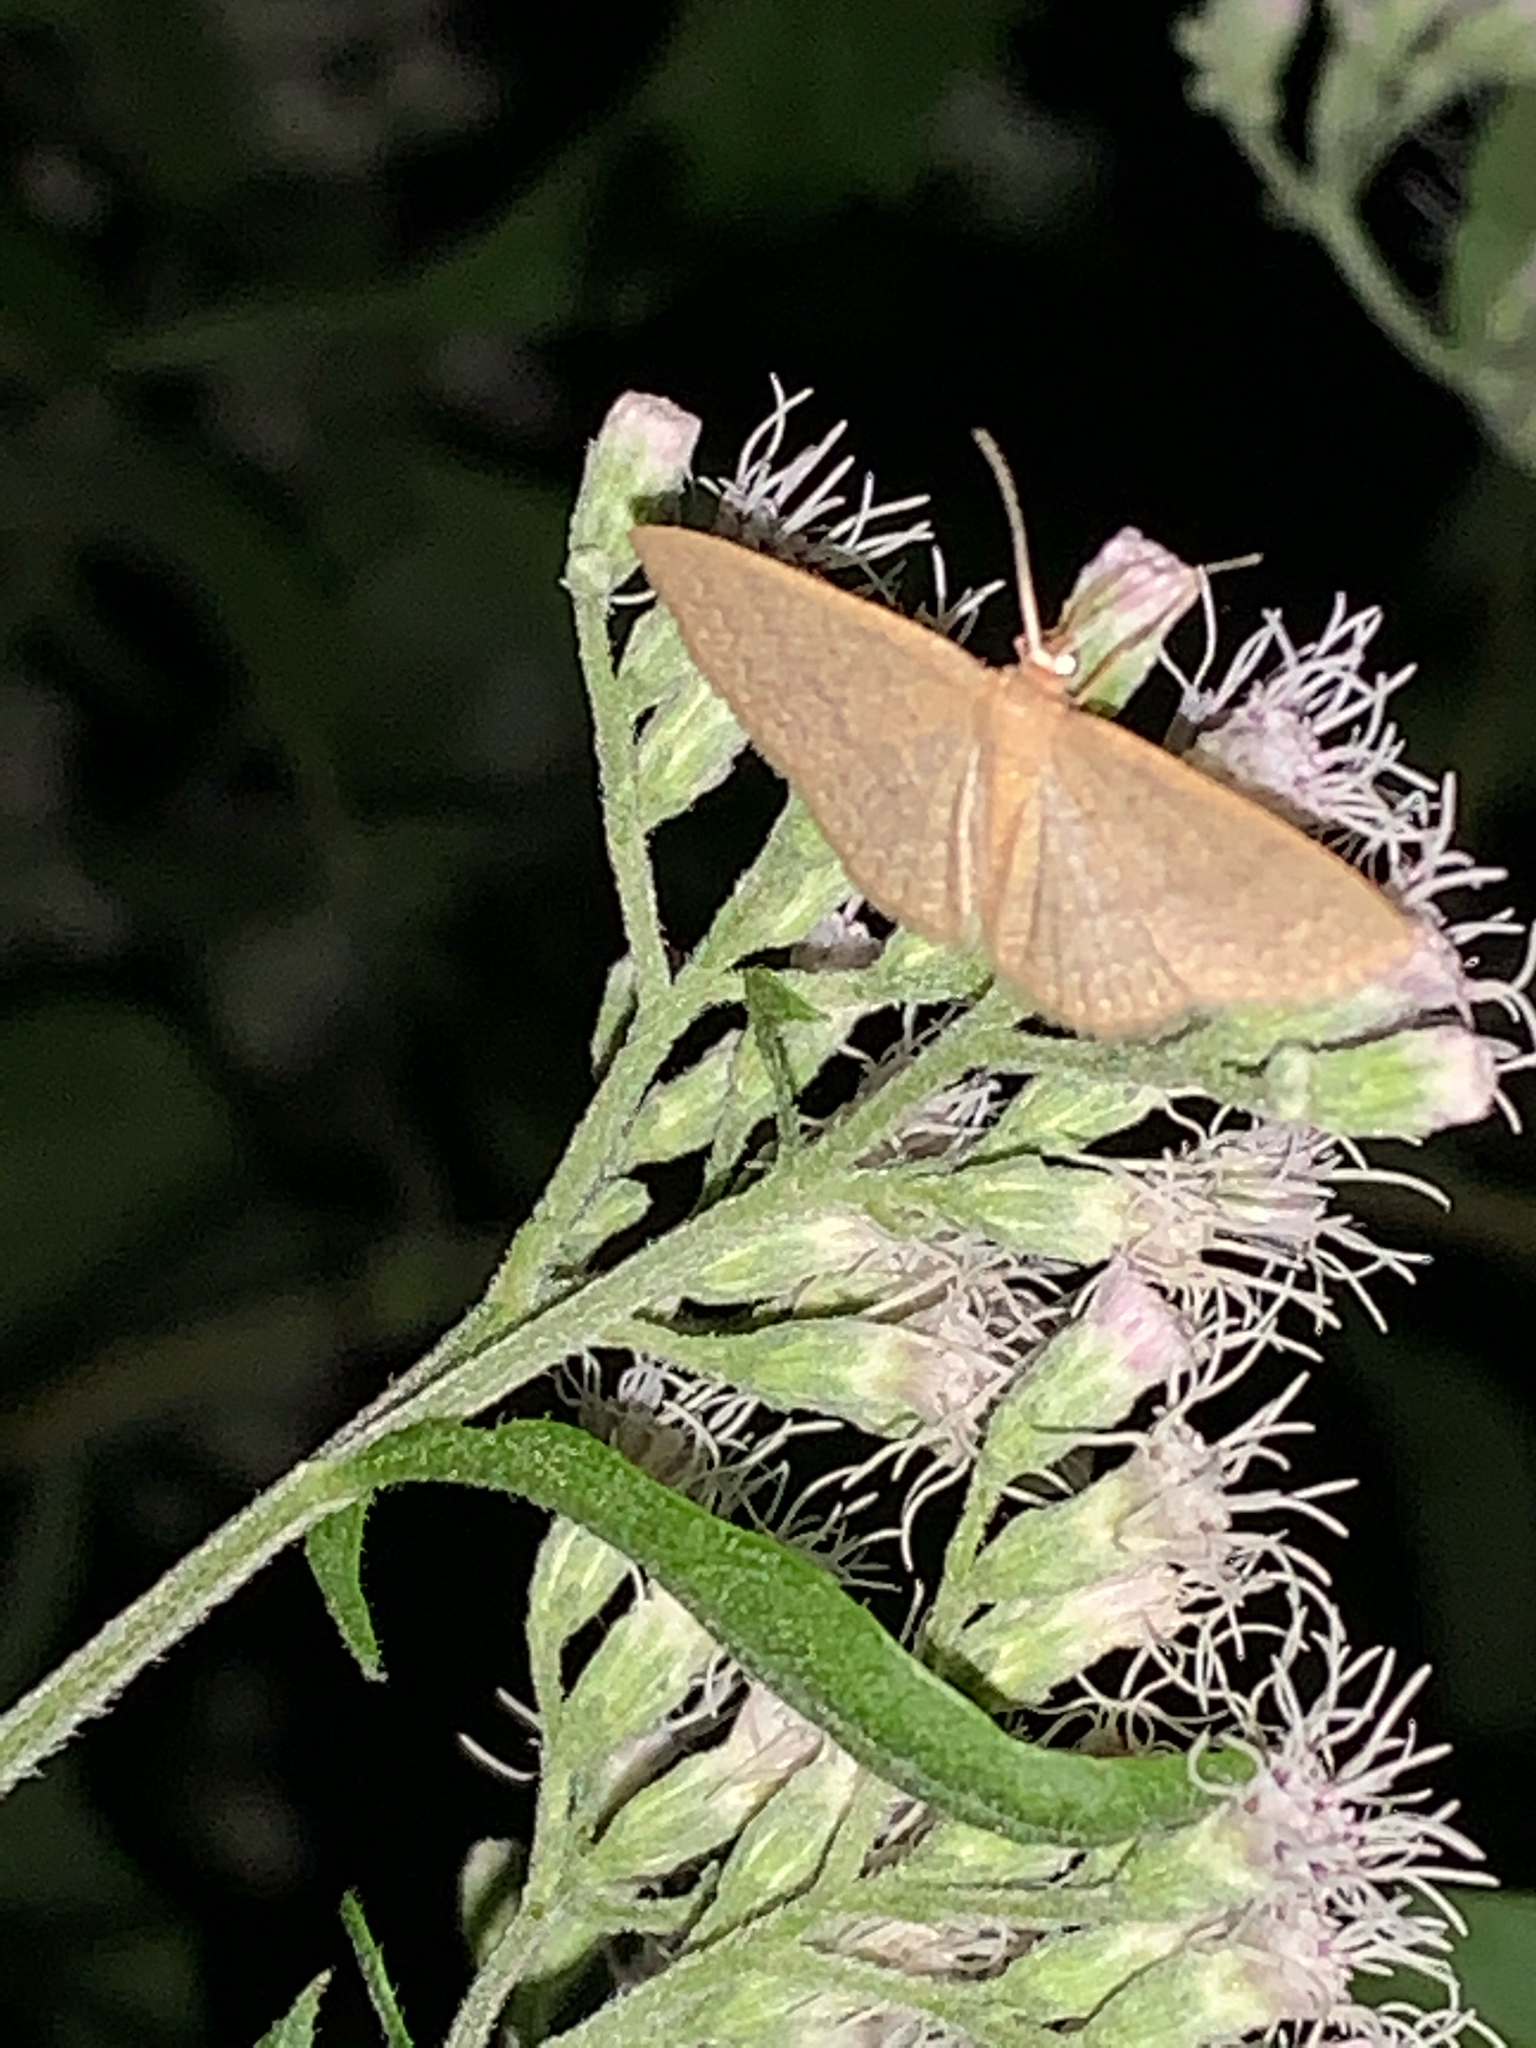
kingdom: Animalia
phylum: Arthropoda
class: Insecta
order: Lepidoptera
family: Geometridae
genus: Pleuroprucha
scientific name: Pleuroprucha insulsaria
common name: Common tan wave
